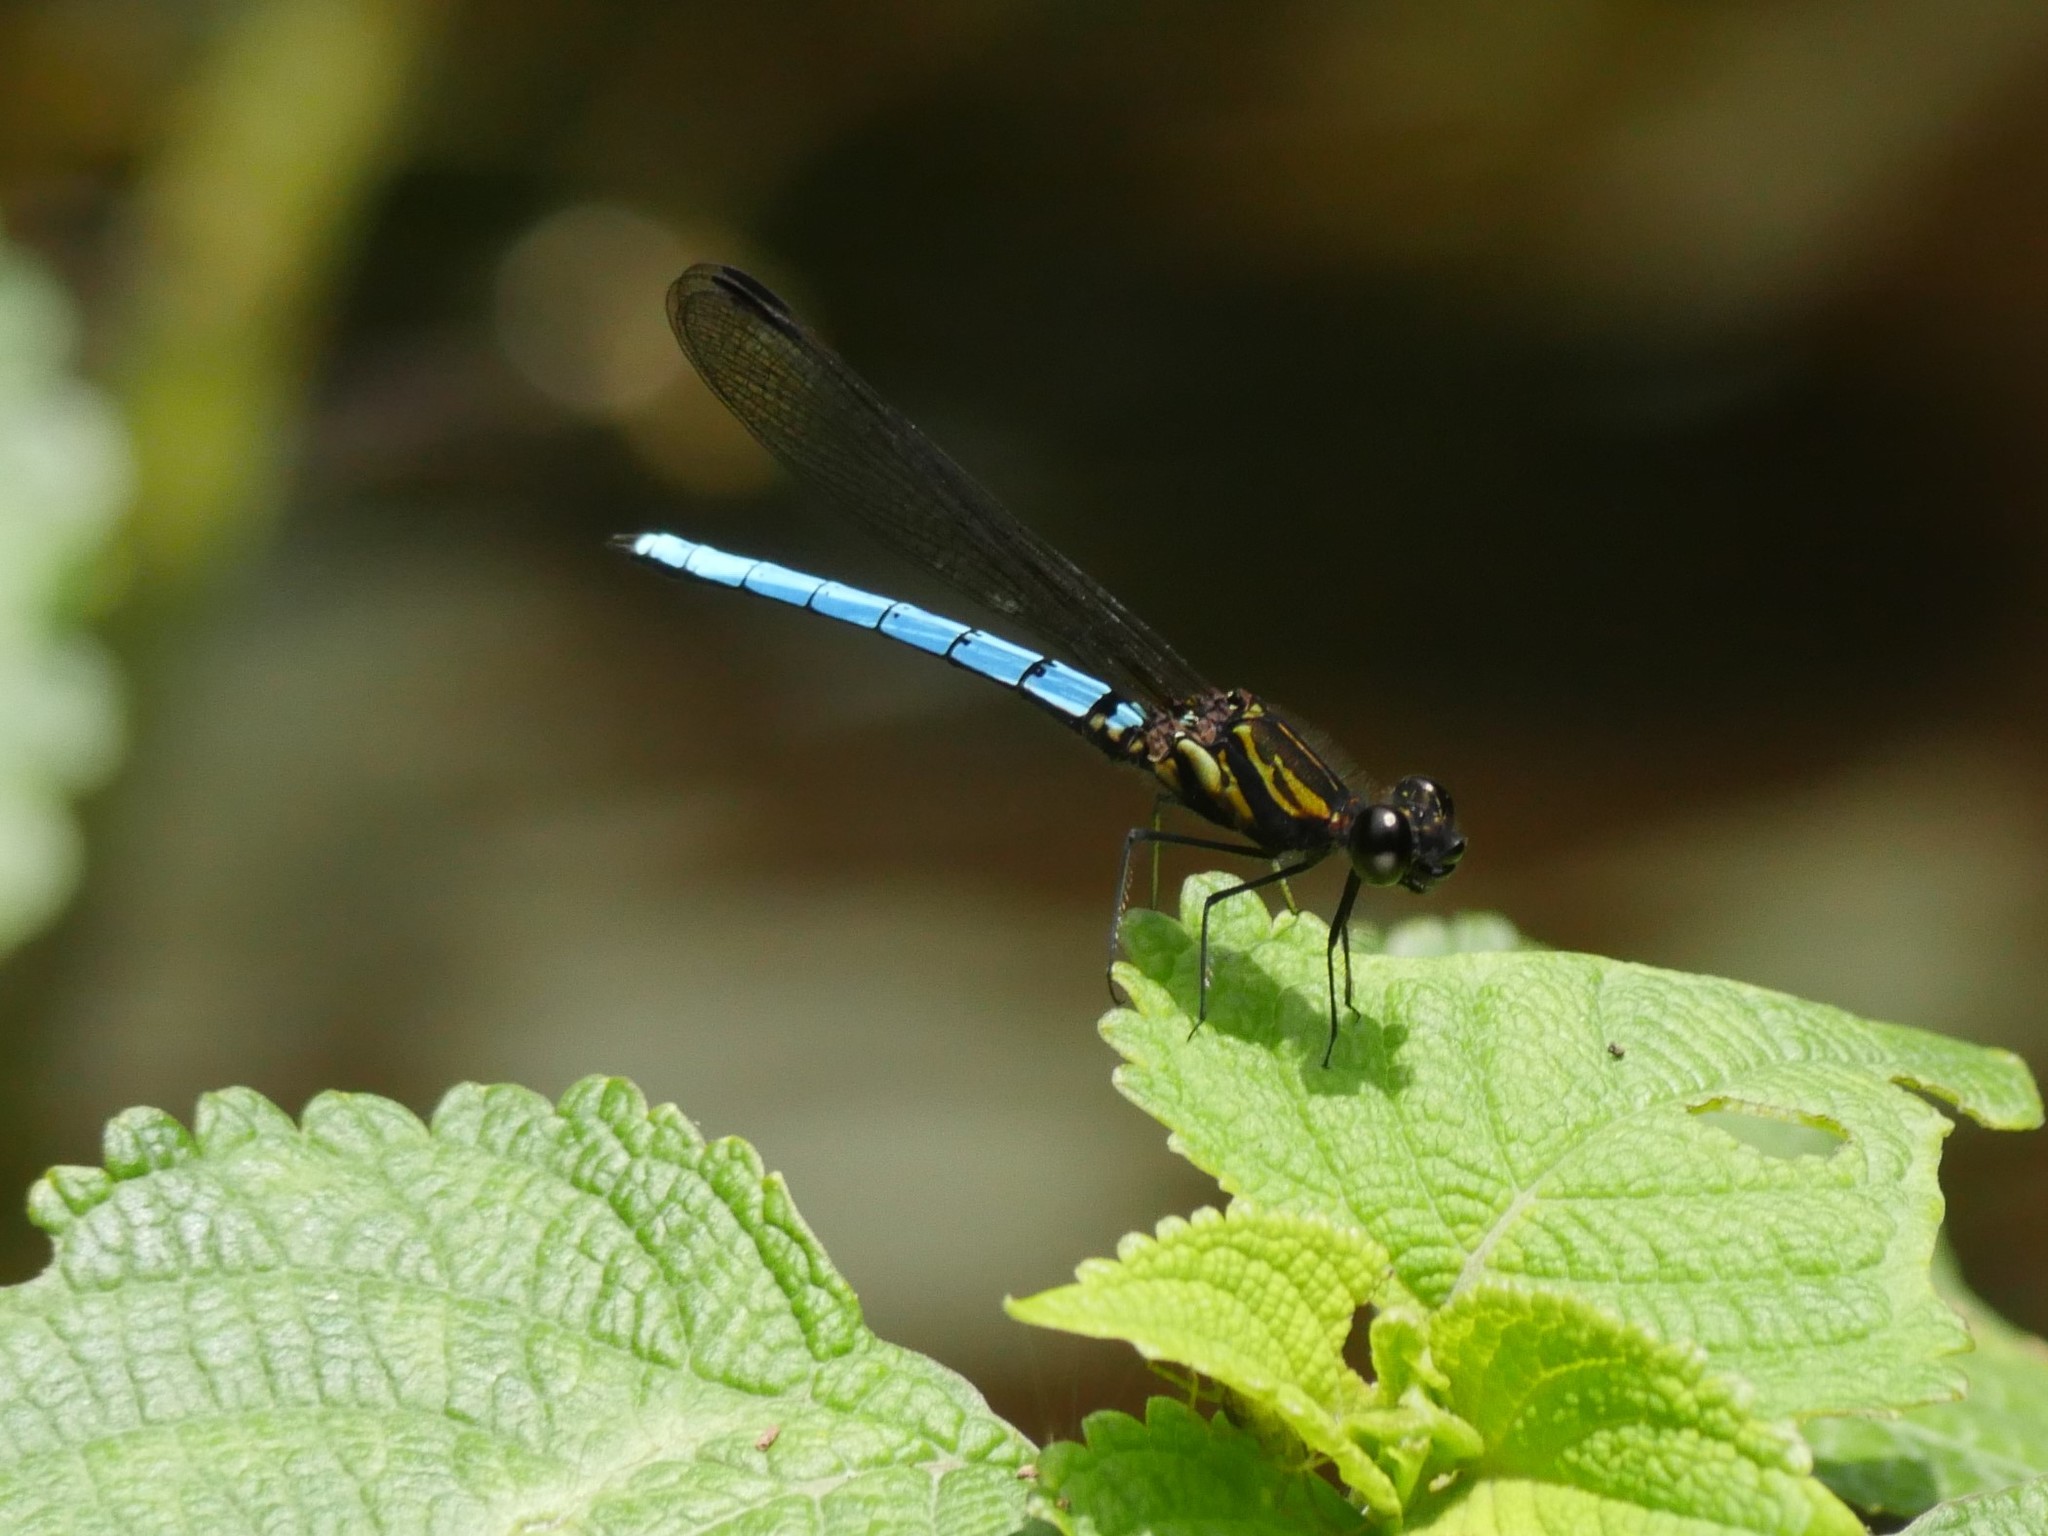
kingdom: Animalia
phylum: Arthropoda
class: Insecta
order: Odonata
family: Chlorocyphidae
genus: Chlorocypha
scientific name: Chlorocypha aphrodite
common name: Blue jewel
